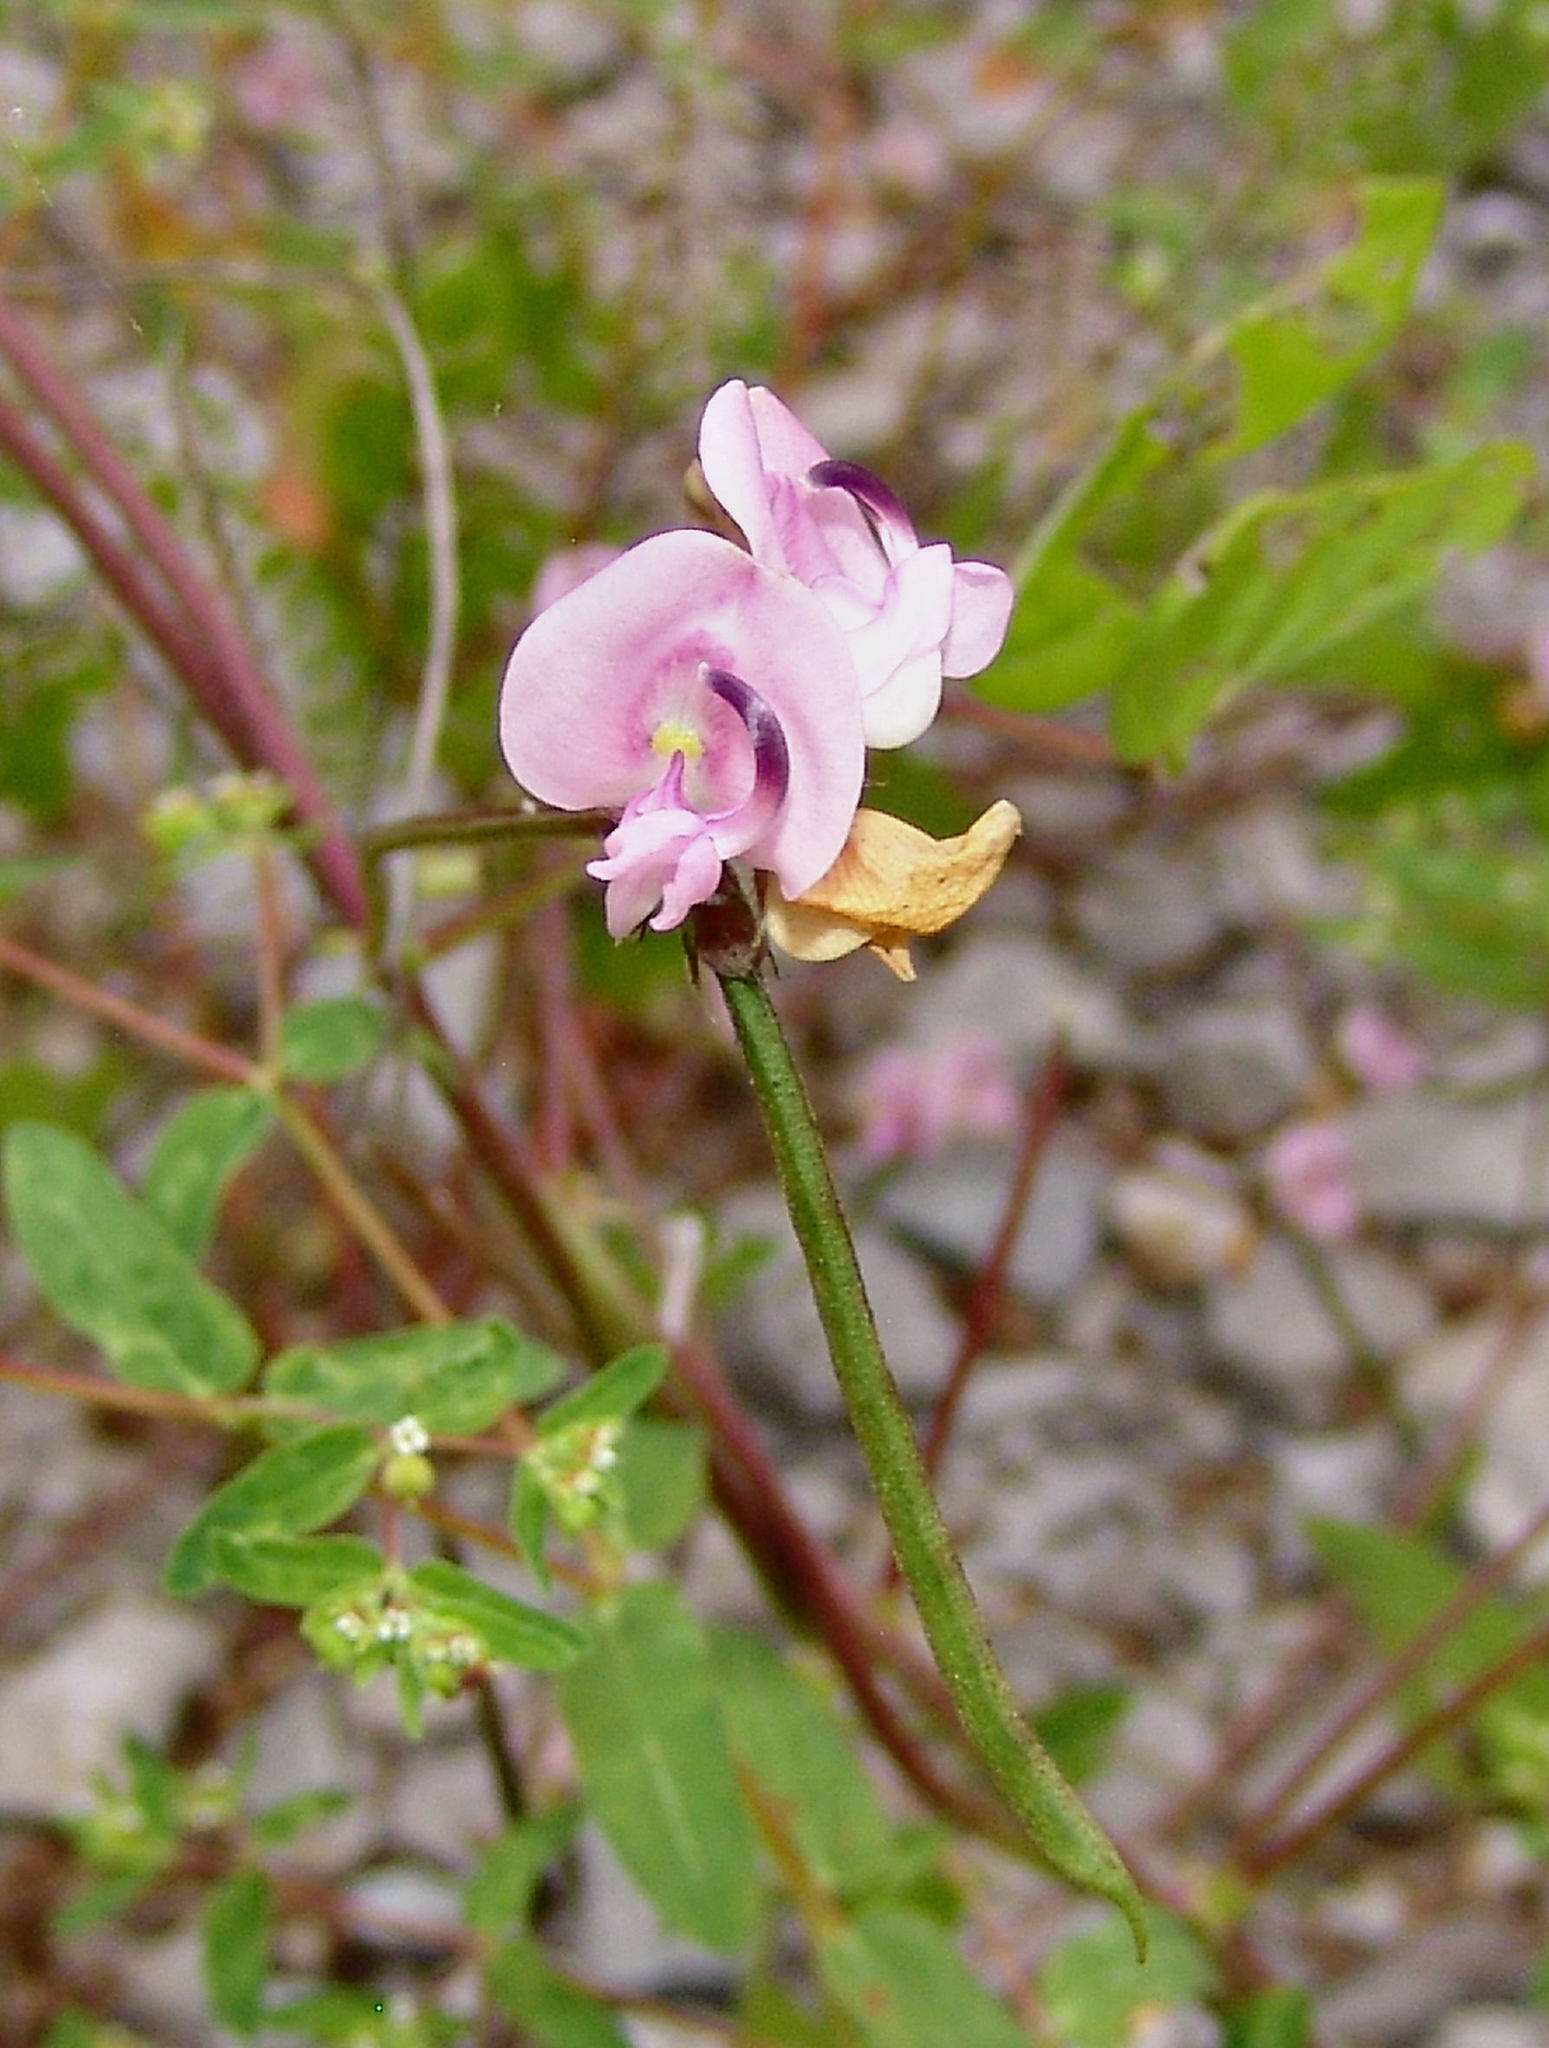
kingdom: Plantae
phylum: Tracheophyta
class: Magnoliopsida
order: Fabales
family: Fabaceae
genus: Strophostyles
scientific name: Strophostyles helvola
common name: Trailing wild bean
